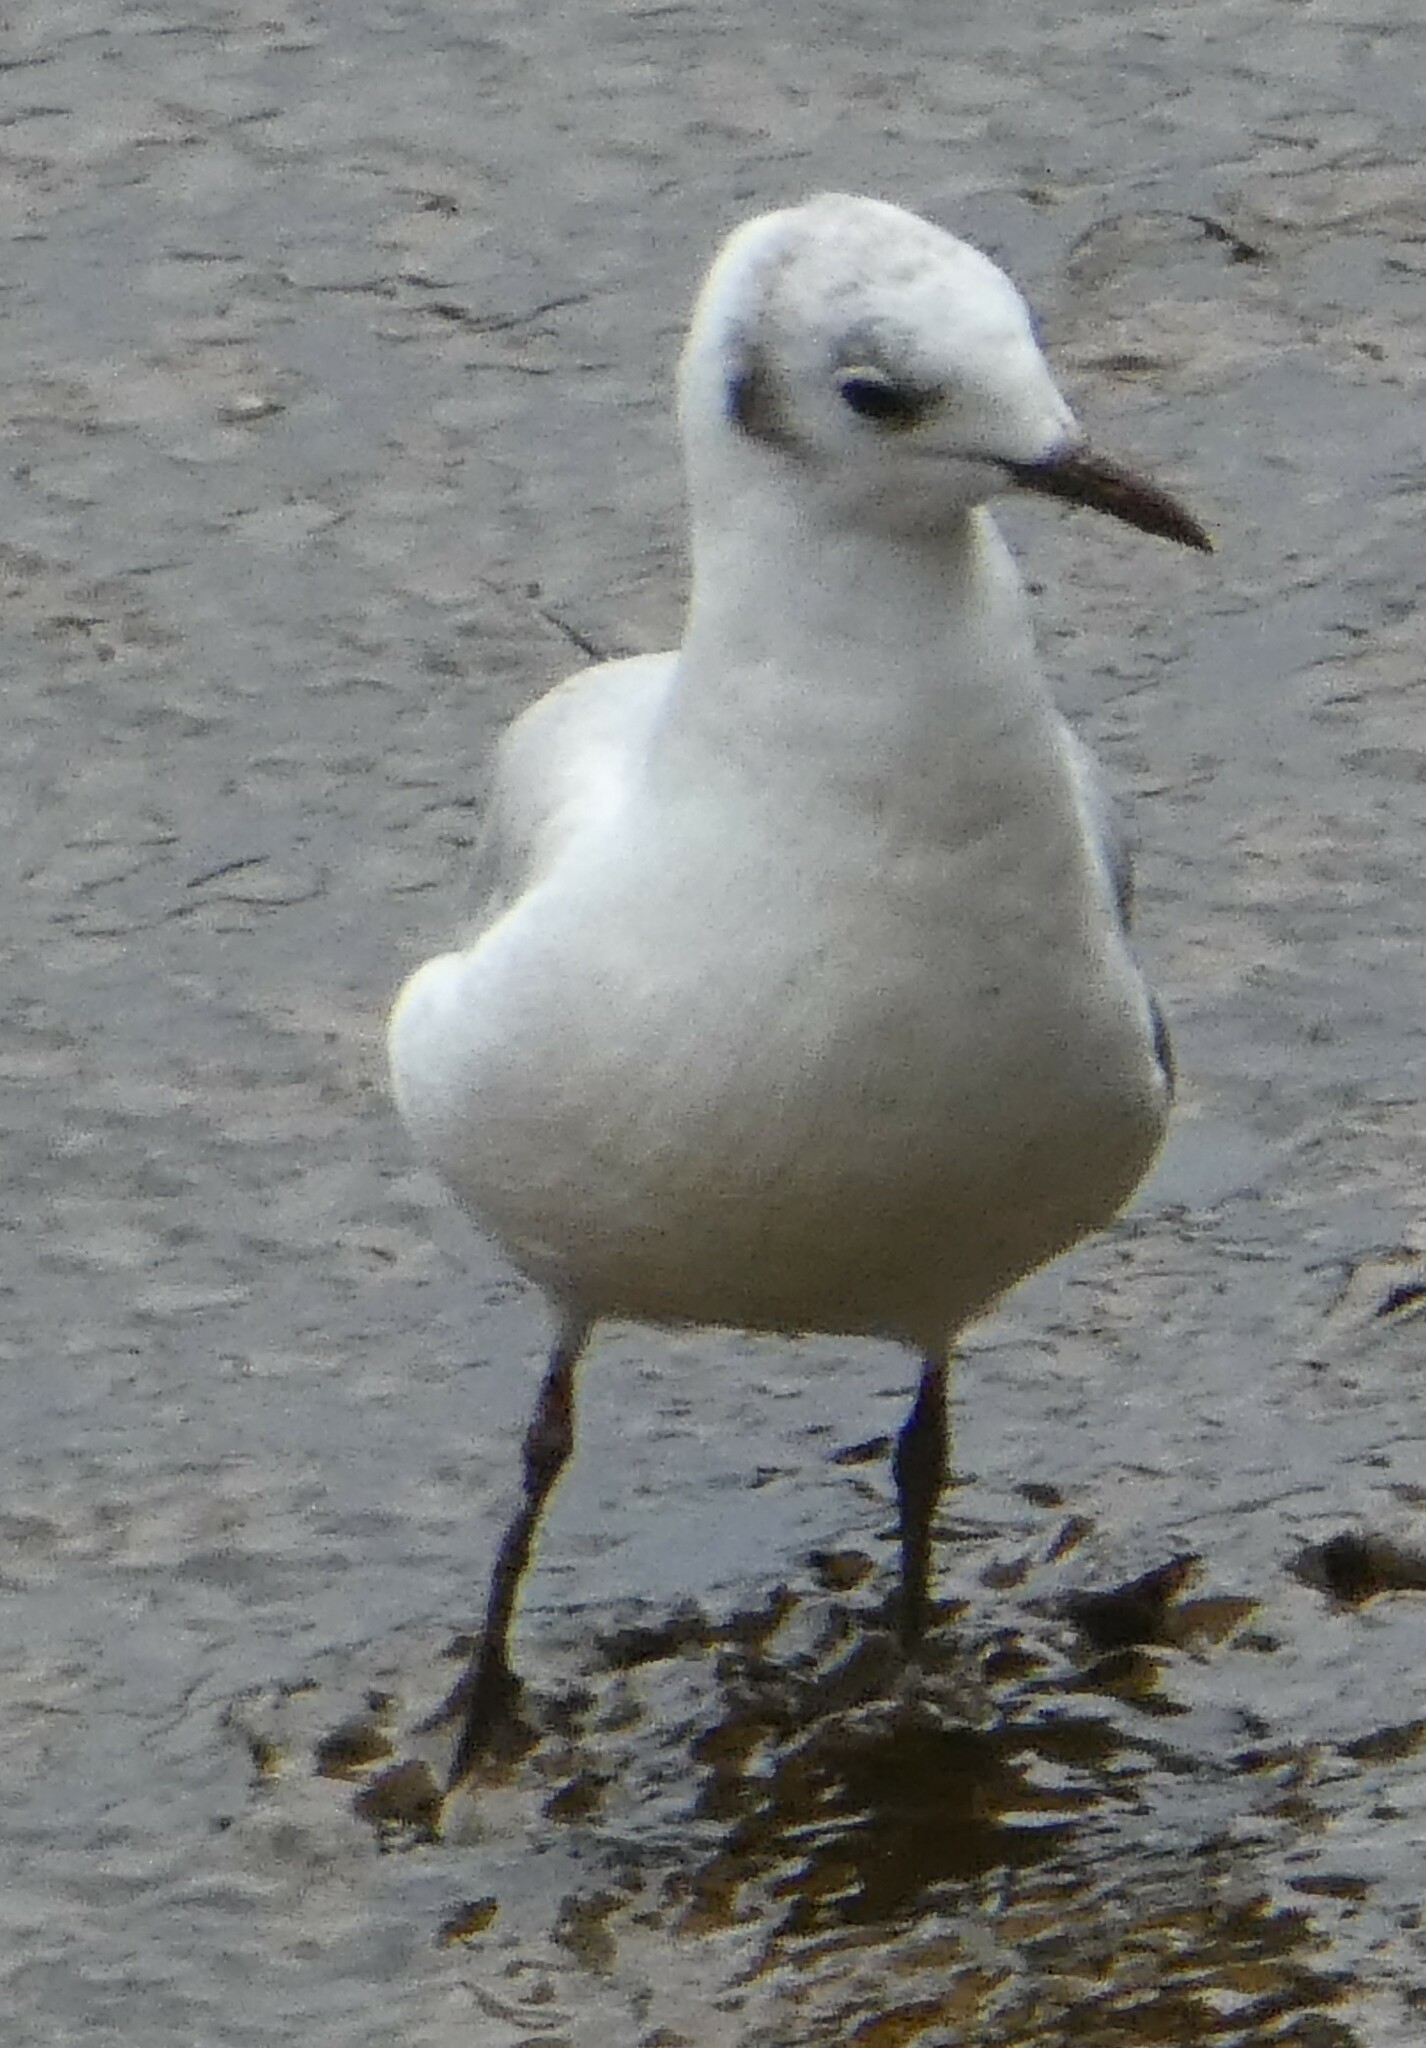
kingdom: Animalia
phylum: Chordata
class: Aves
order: Charadriiformes
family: Laridae
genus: Chroicocephalus
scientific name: Chroicocephalus ridibundus
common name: Black-headed gull
